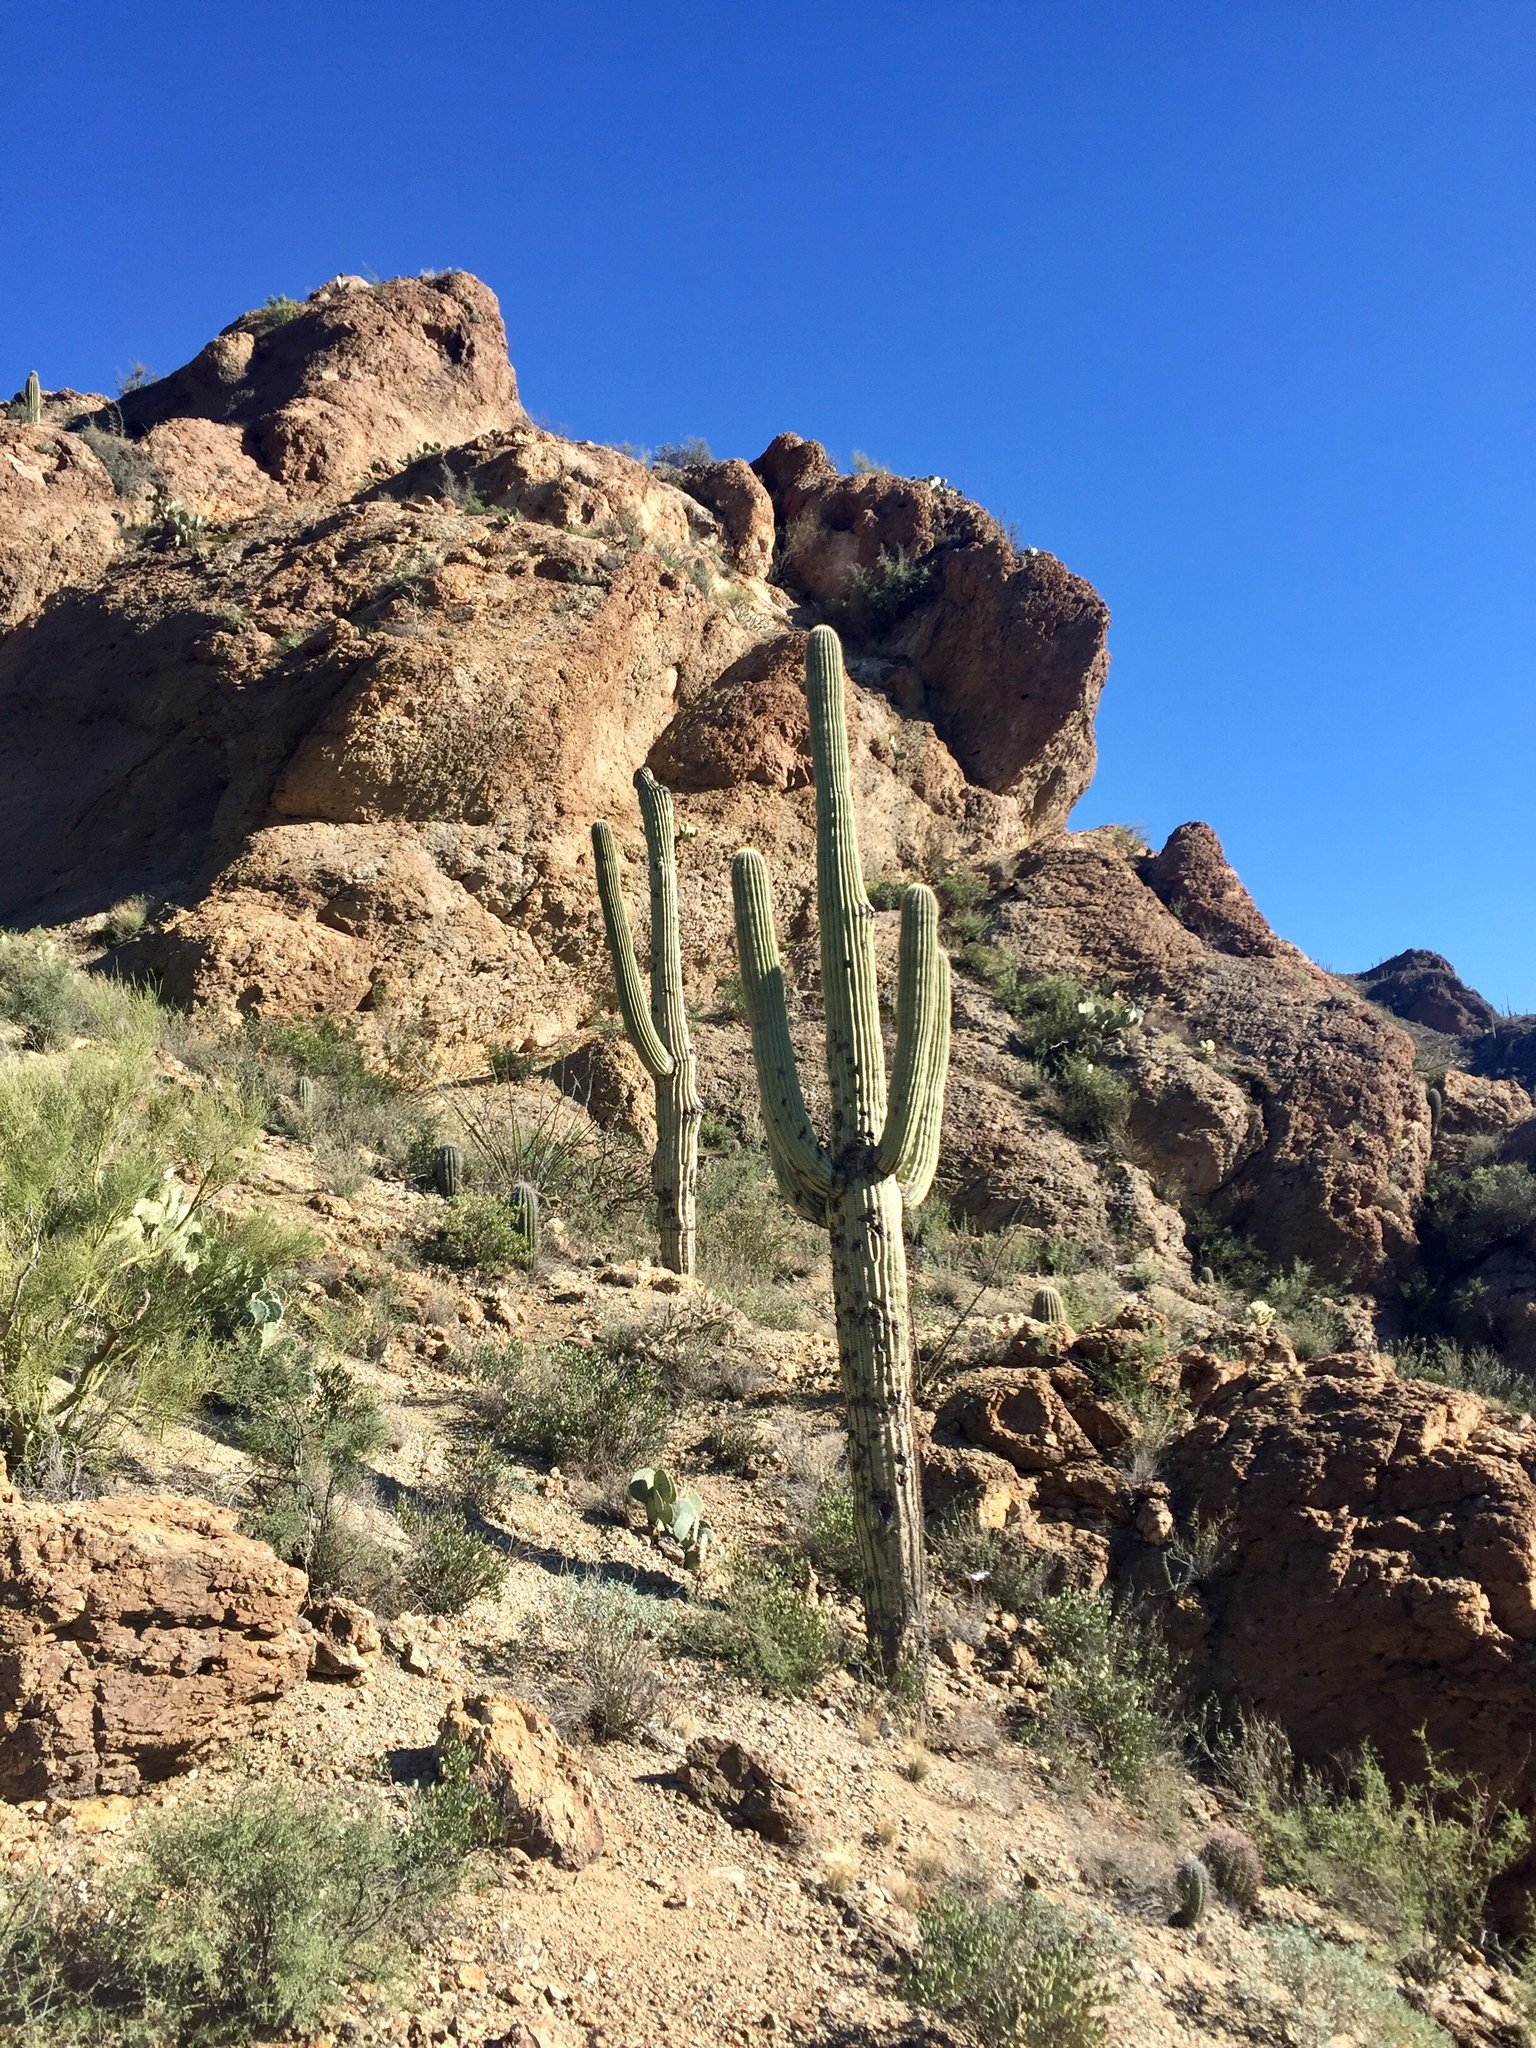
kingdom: Plantae
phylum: Tracheophyta
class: Magnoliopsida
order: Caryophyllales
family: Cactaceae
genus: Carnegiea
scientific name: Carnegiea gigantea
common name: Saguaro
